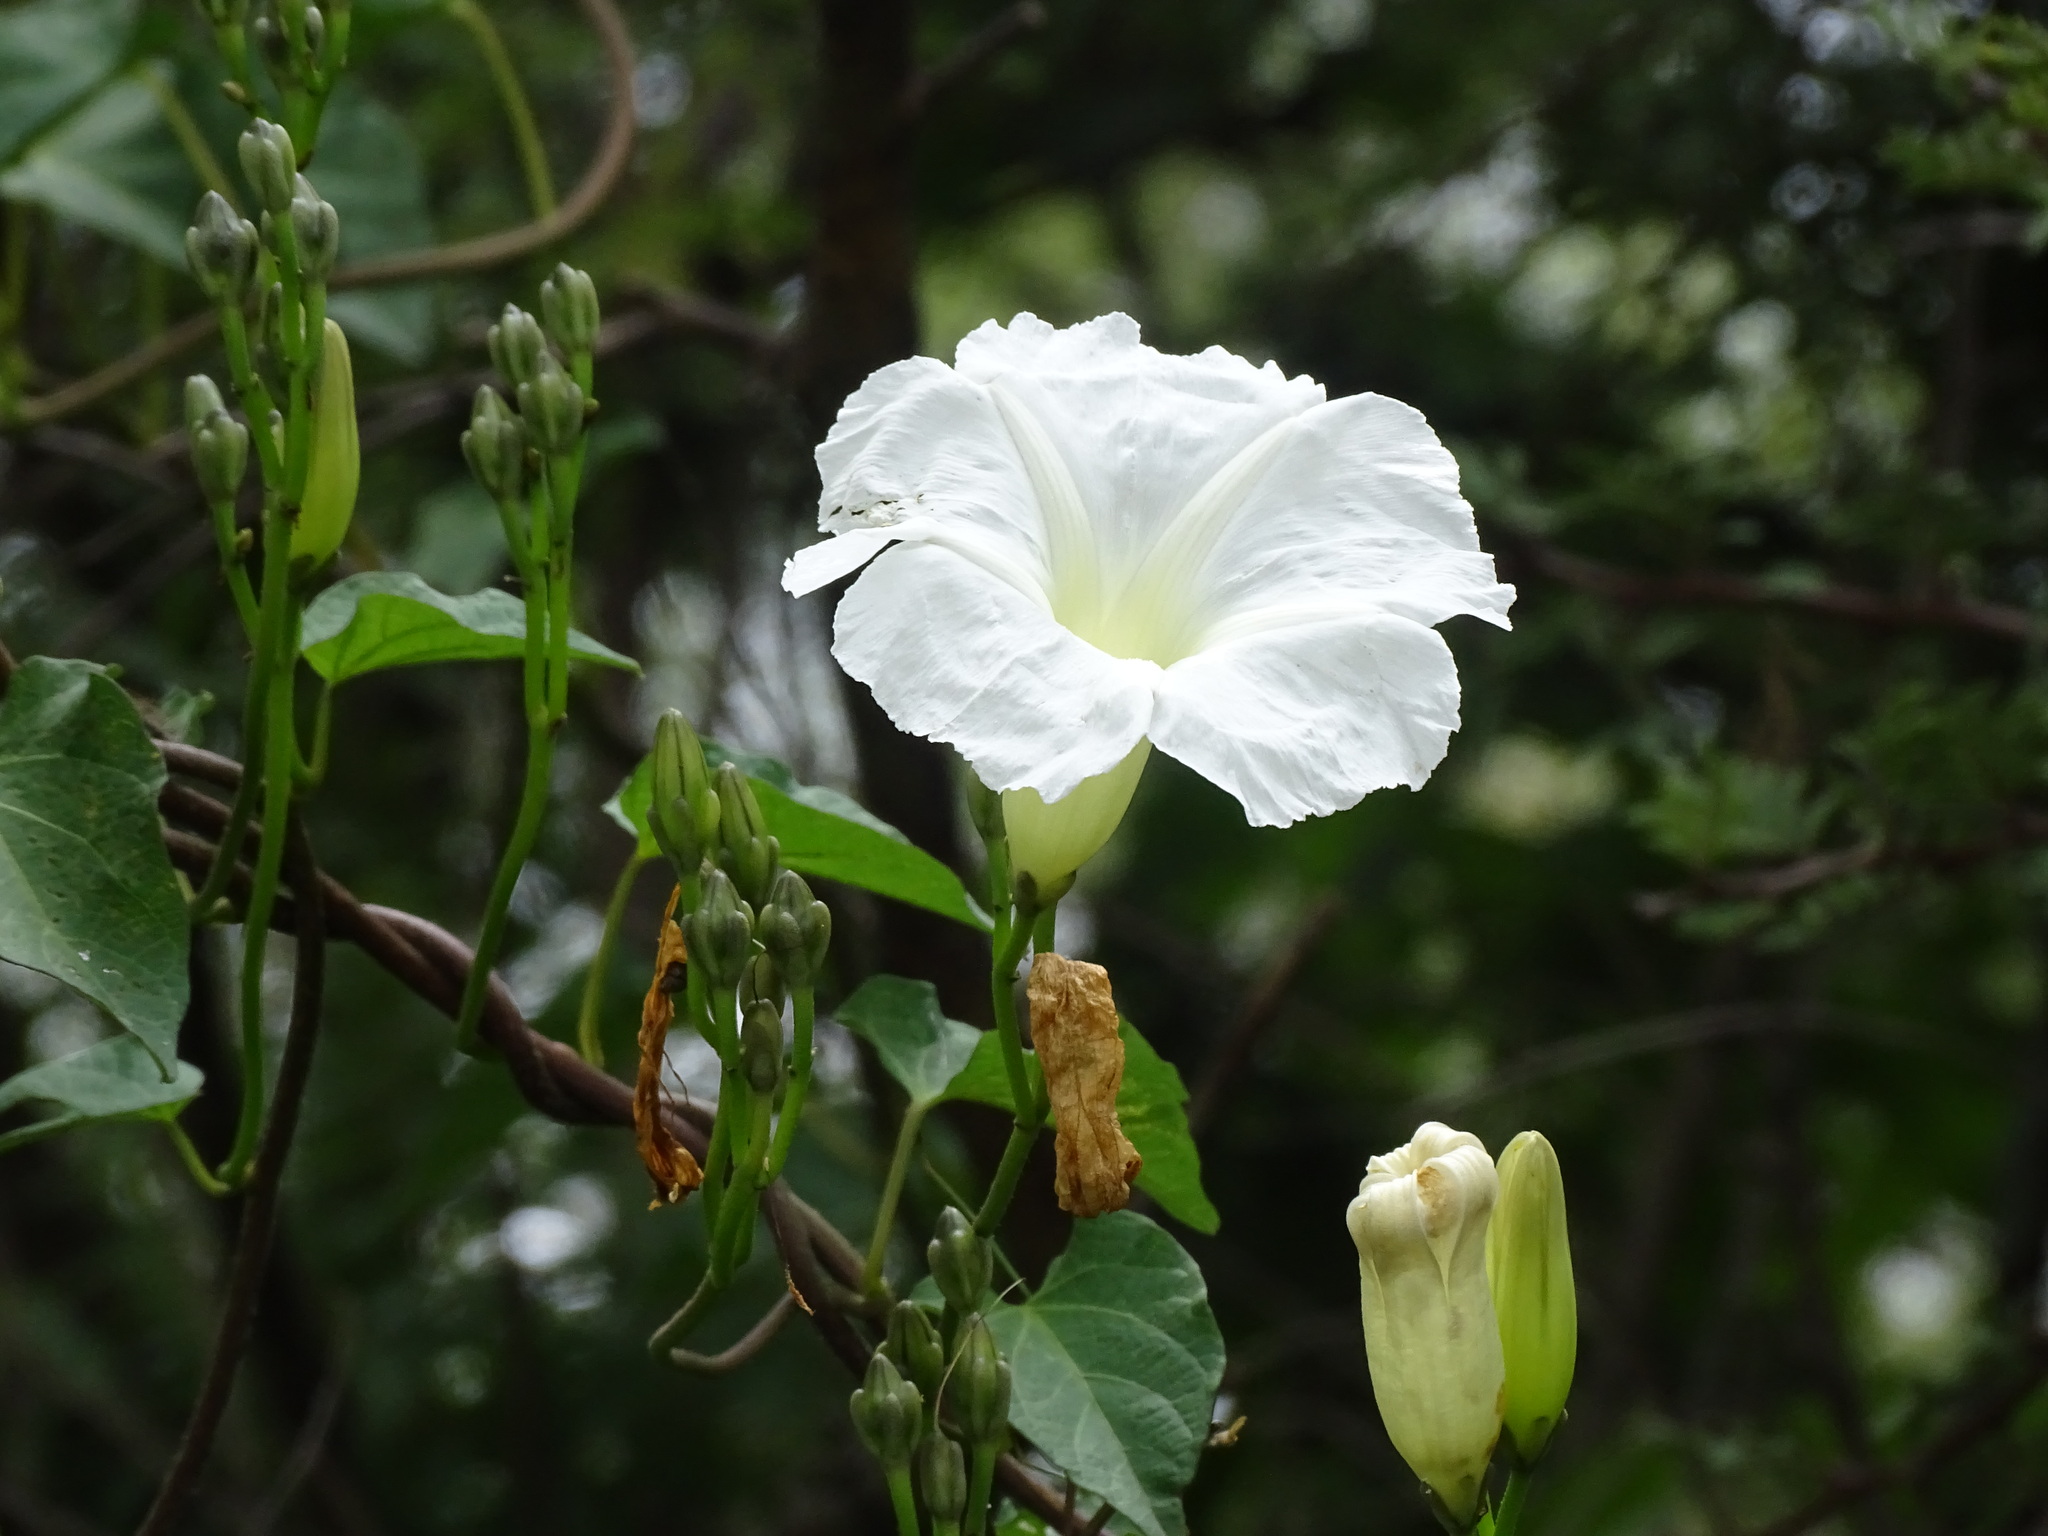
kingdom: Plantae
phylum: Tracheophyta
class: Magnoliopsida
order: Solanales
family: Convolvulaceae
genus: Ipomoea
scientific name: Ipomoea proxima
